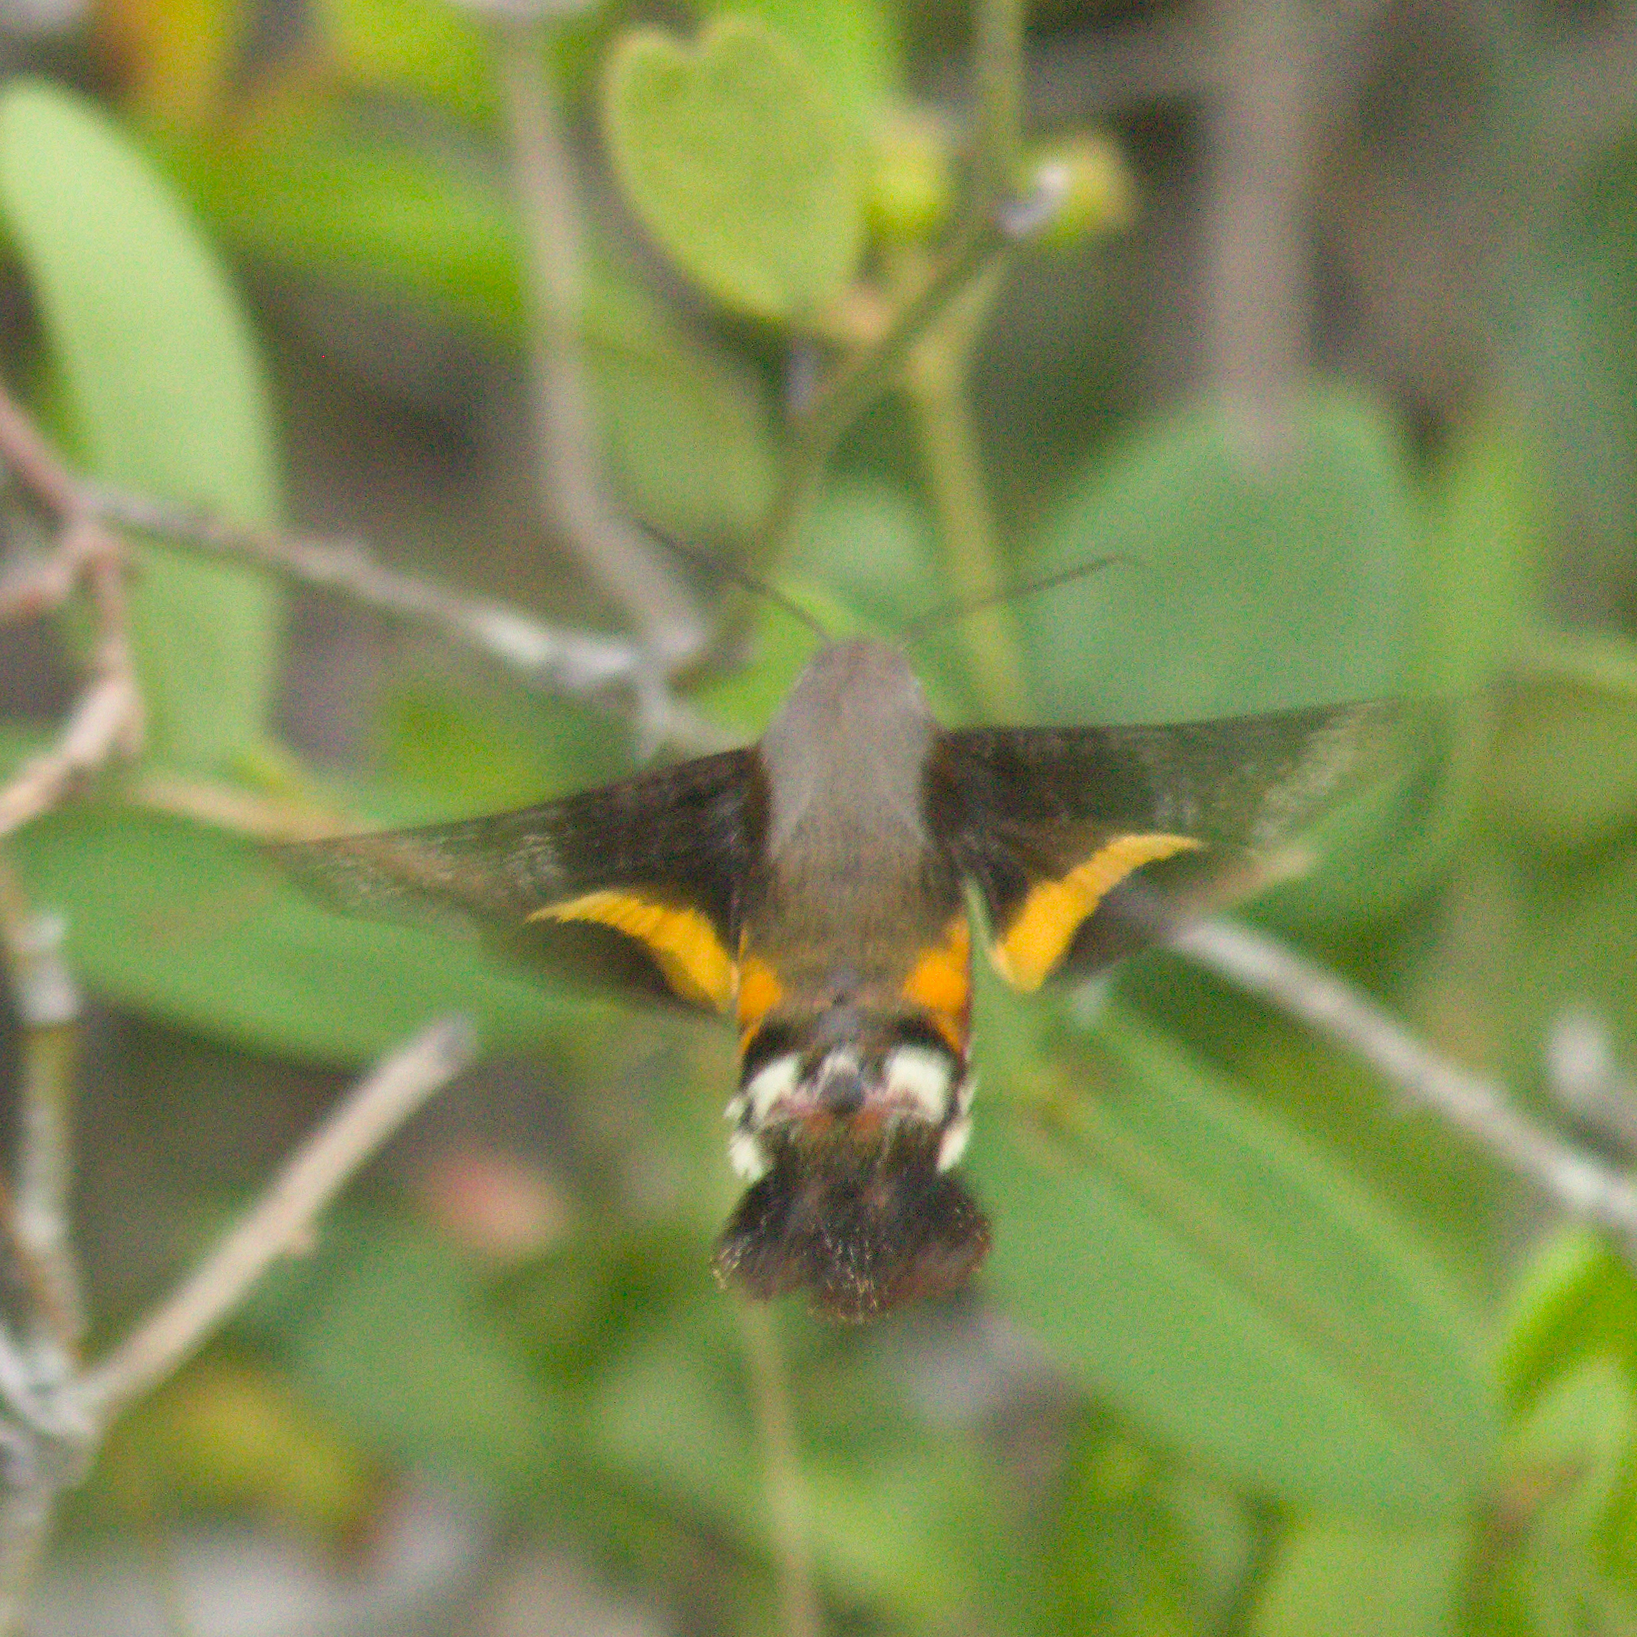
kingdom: Animalia
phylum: Arthropoda
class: Insecta
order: Lepidoptera
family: Sphingidae
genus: Aellopos
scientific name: Aellopos ceculus
